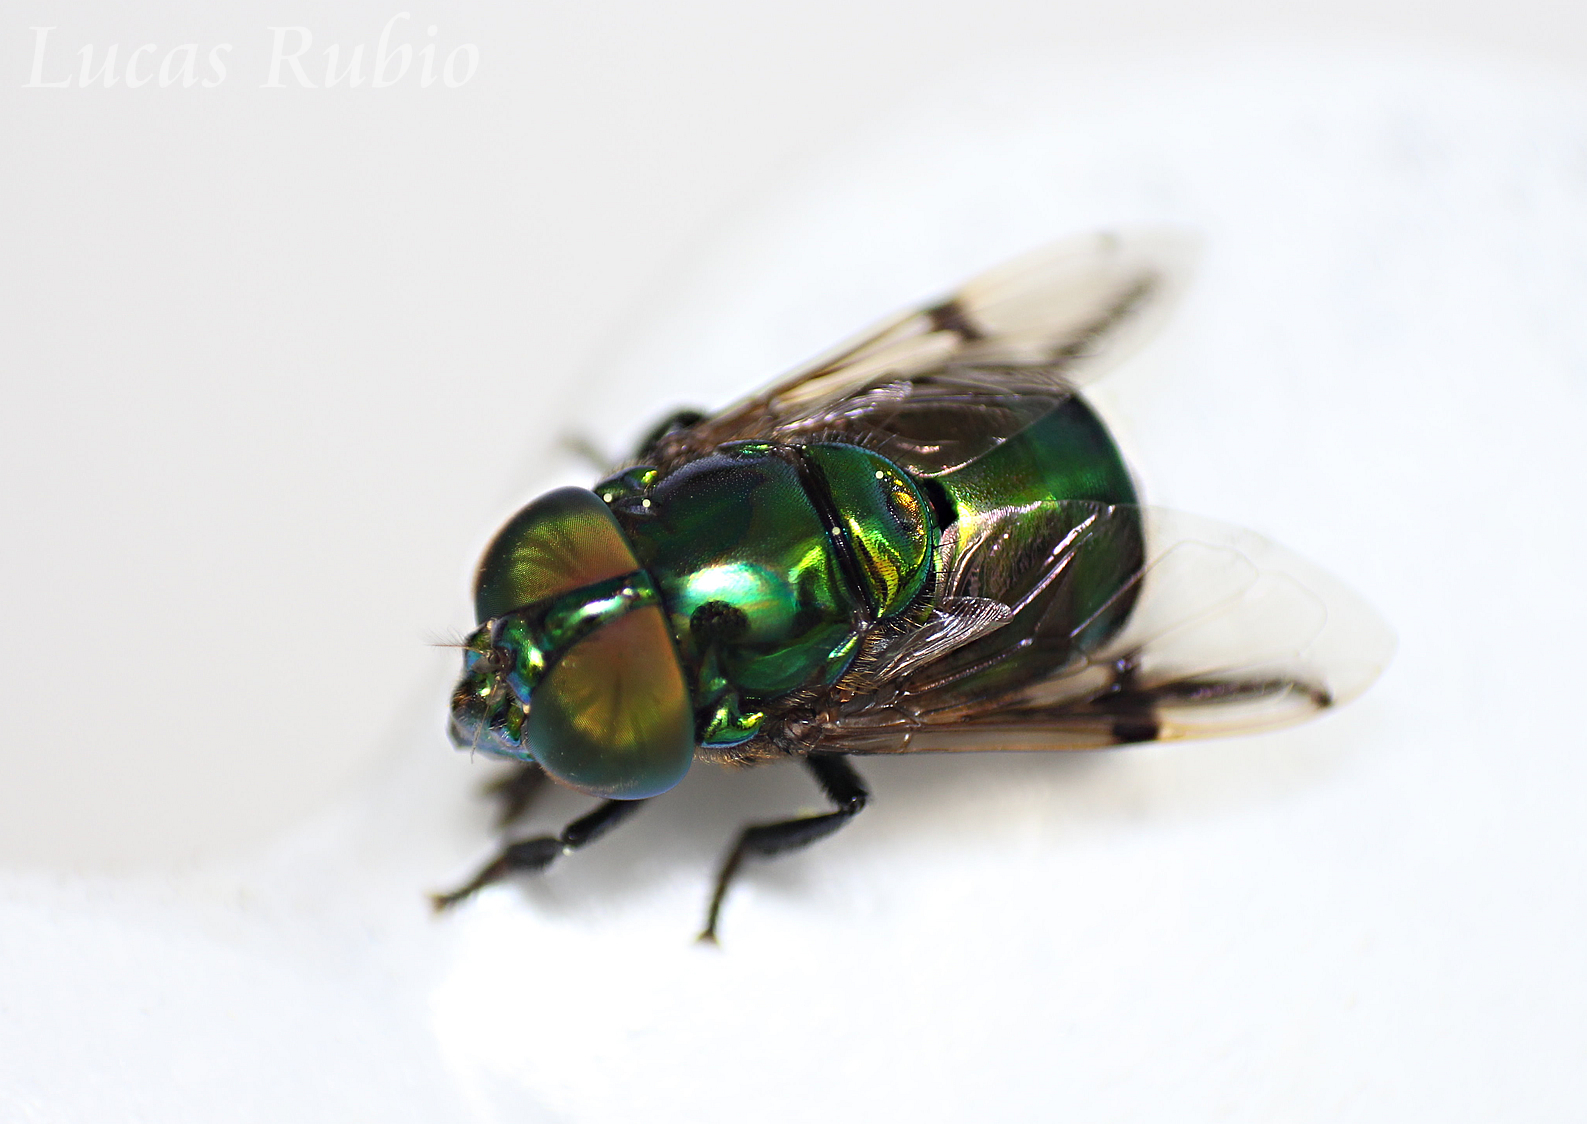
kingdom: Animalia
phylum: Arthropoda
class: Insecta
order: Diptera
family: Syrphidae
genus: Ornidia
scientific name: Ornidia obesa
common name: Syrphid fly
